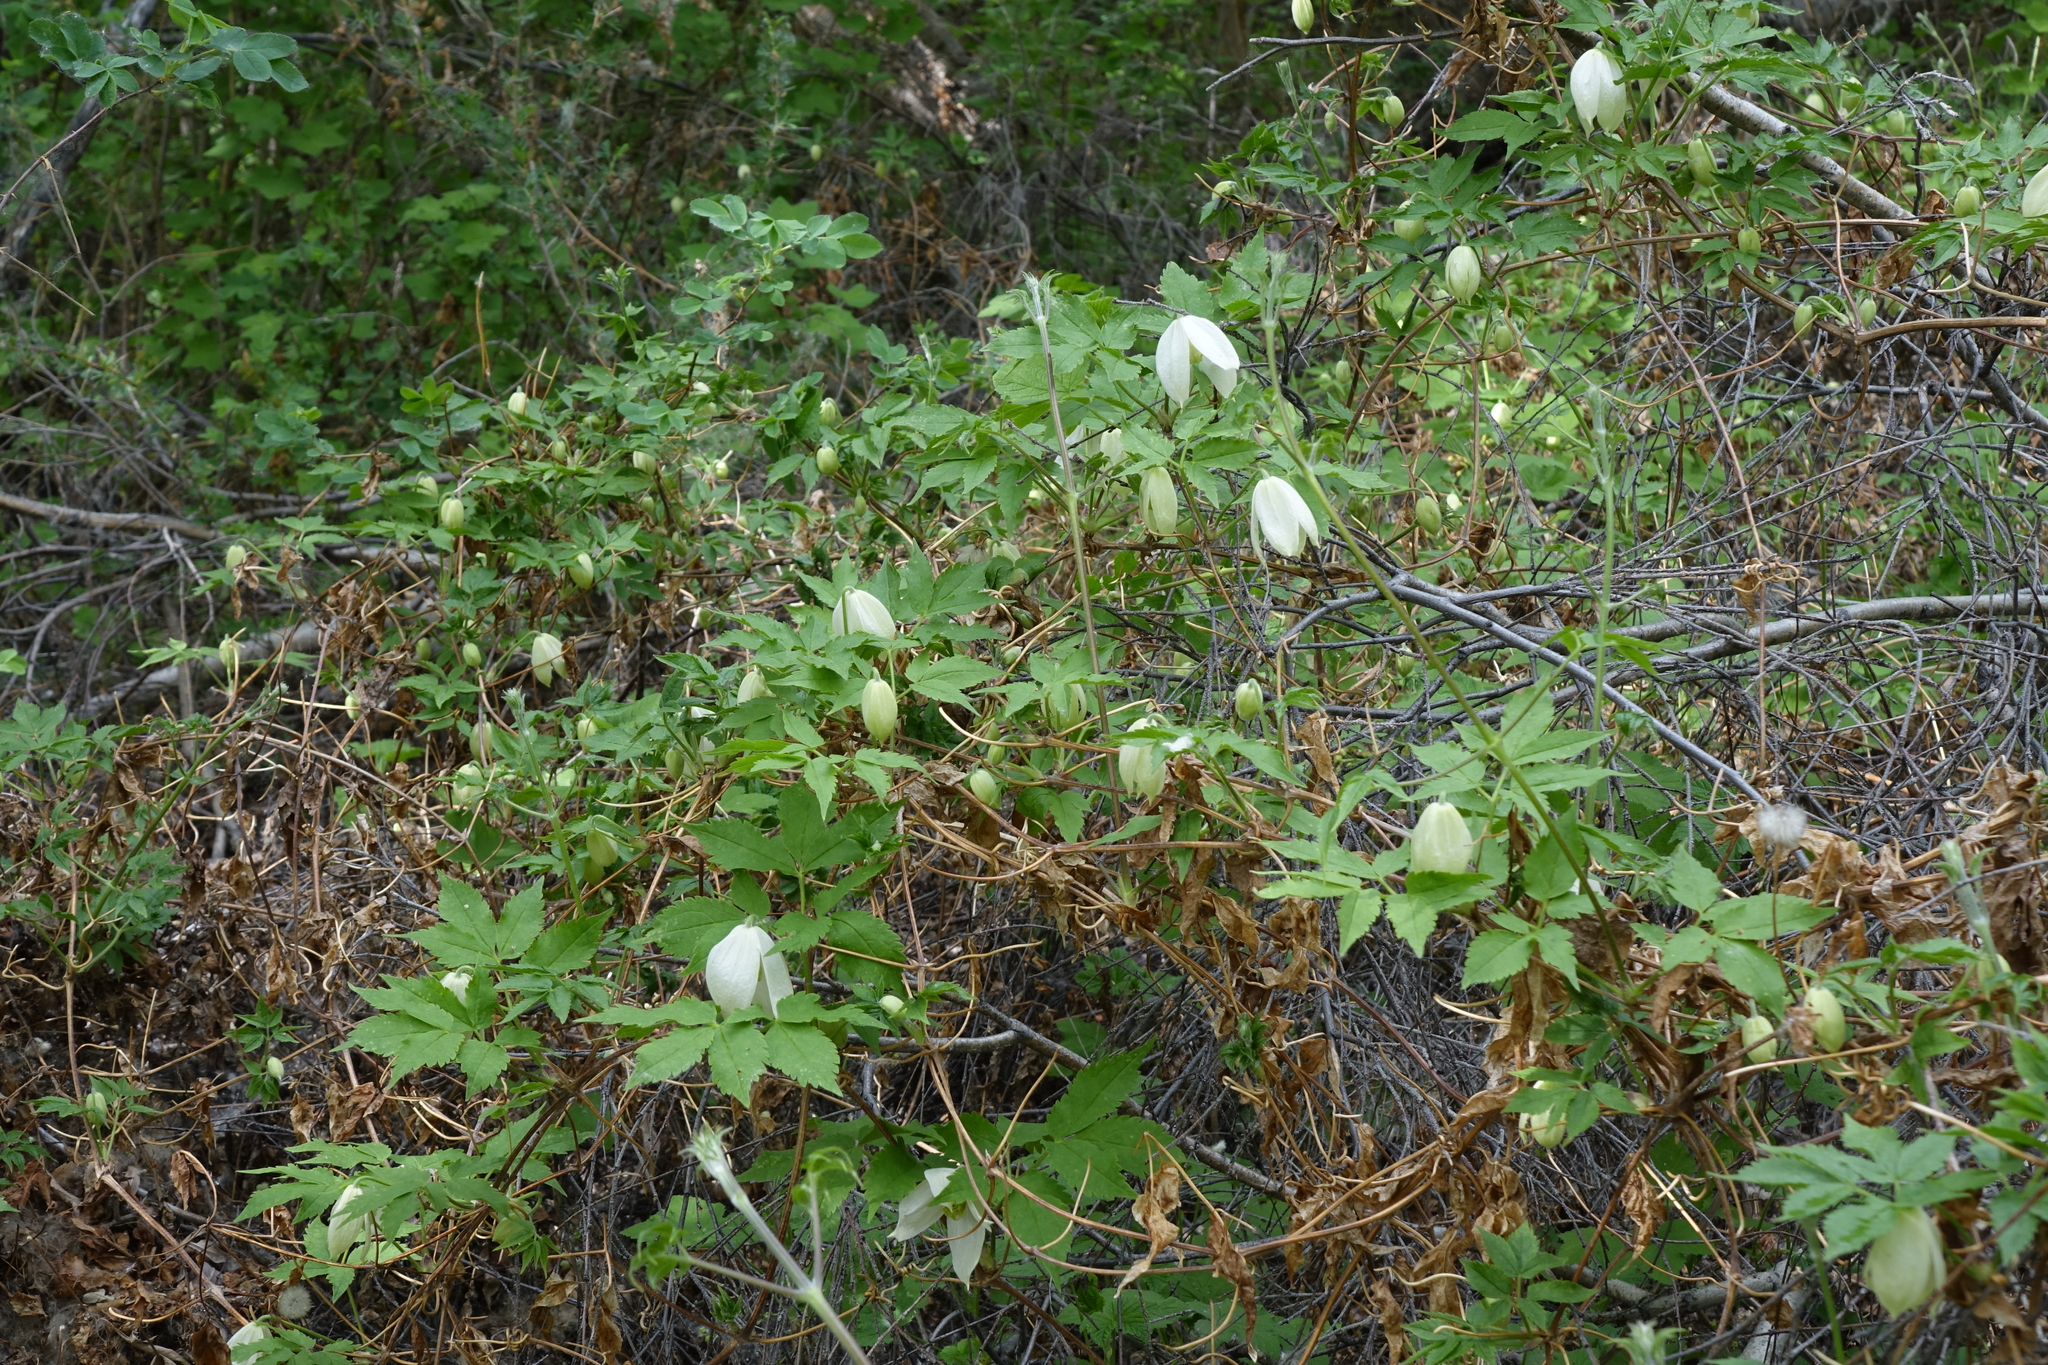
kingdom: Plantae
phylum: Tracheophyta
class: Magnoliopsida
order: Ranunculales
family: Ranunculaceae
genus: Clematis
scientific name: Clematis sibirica
